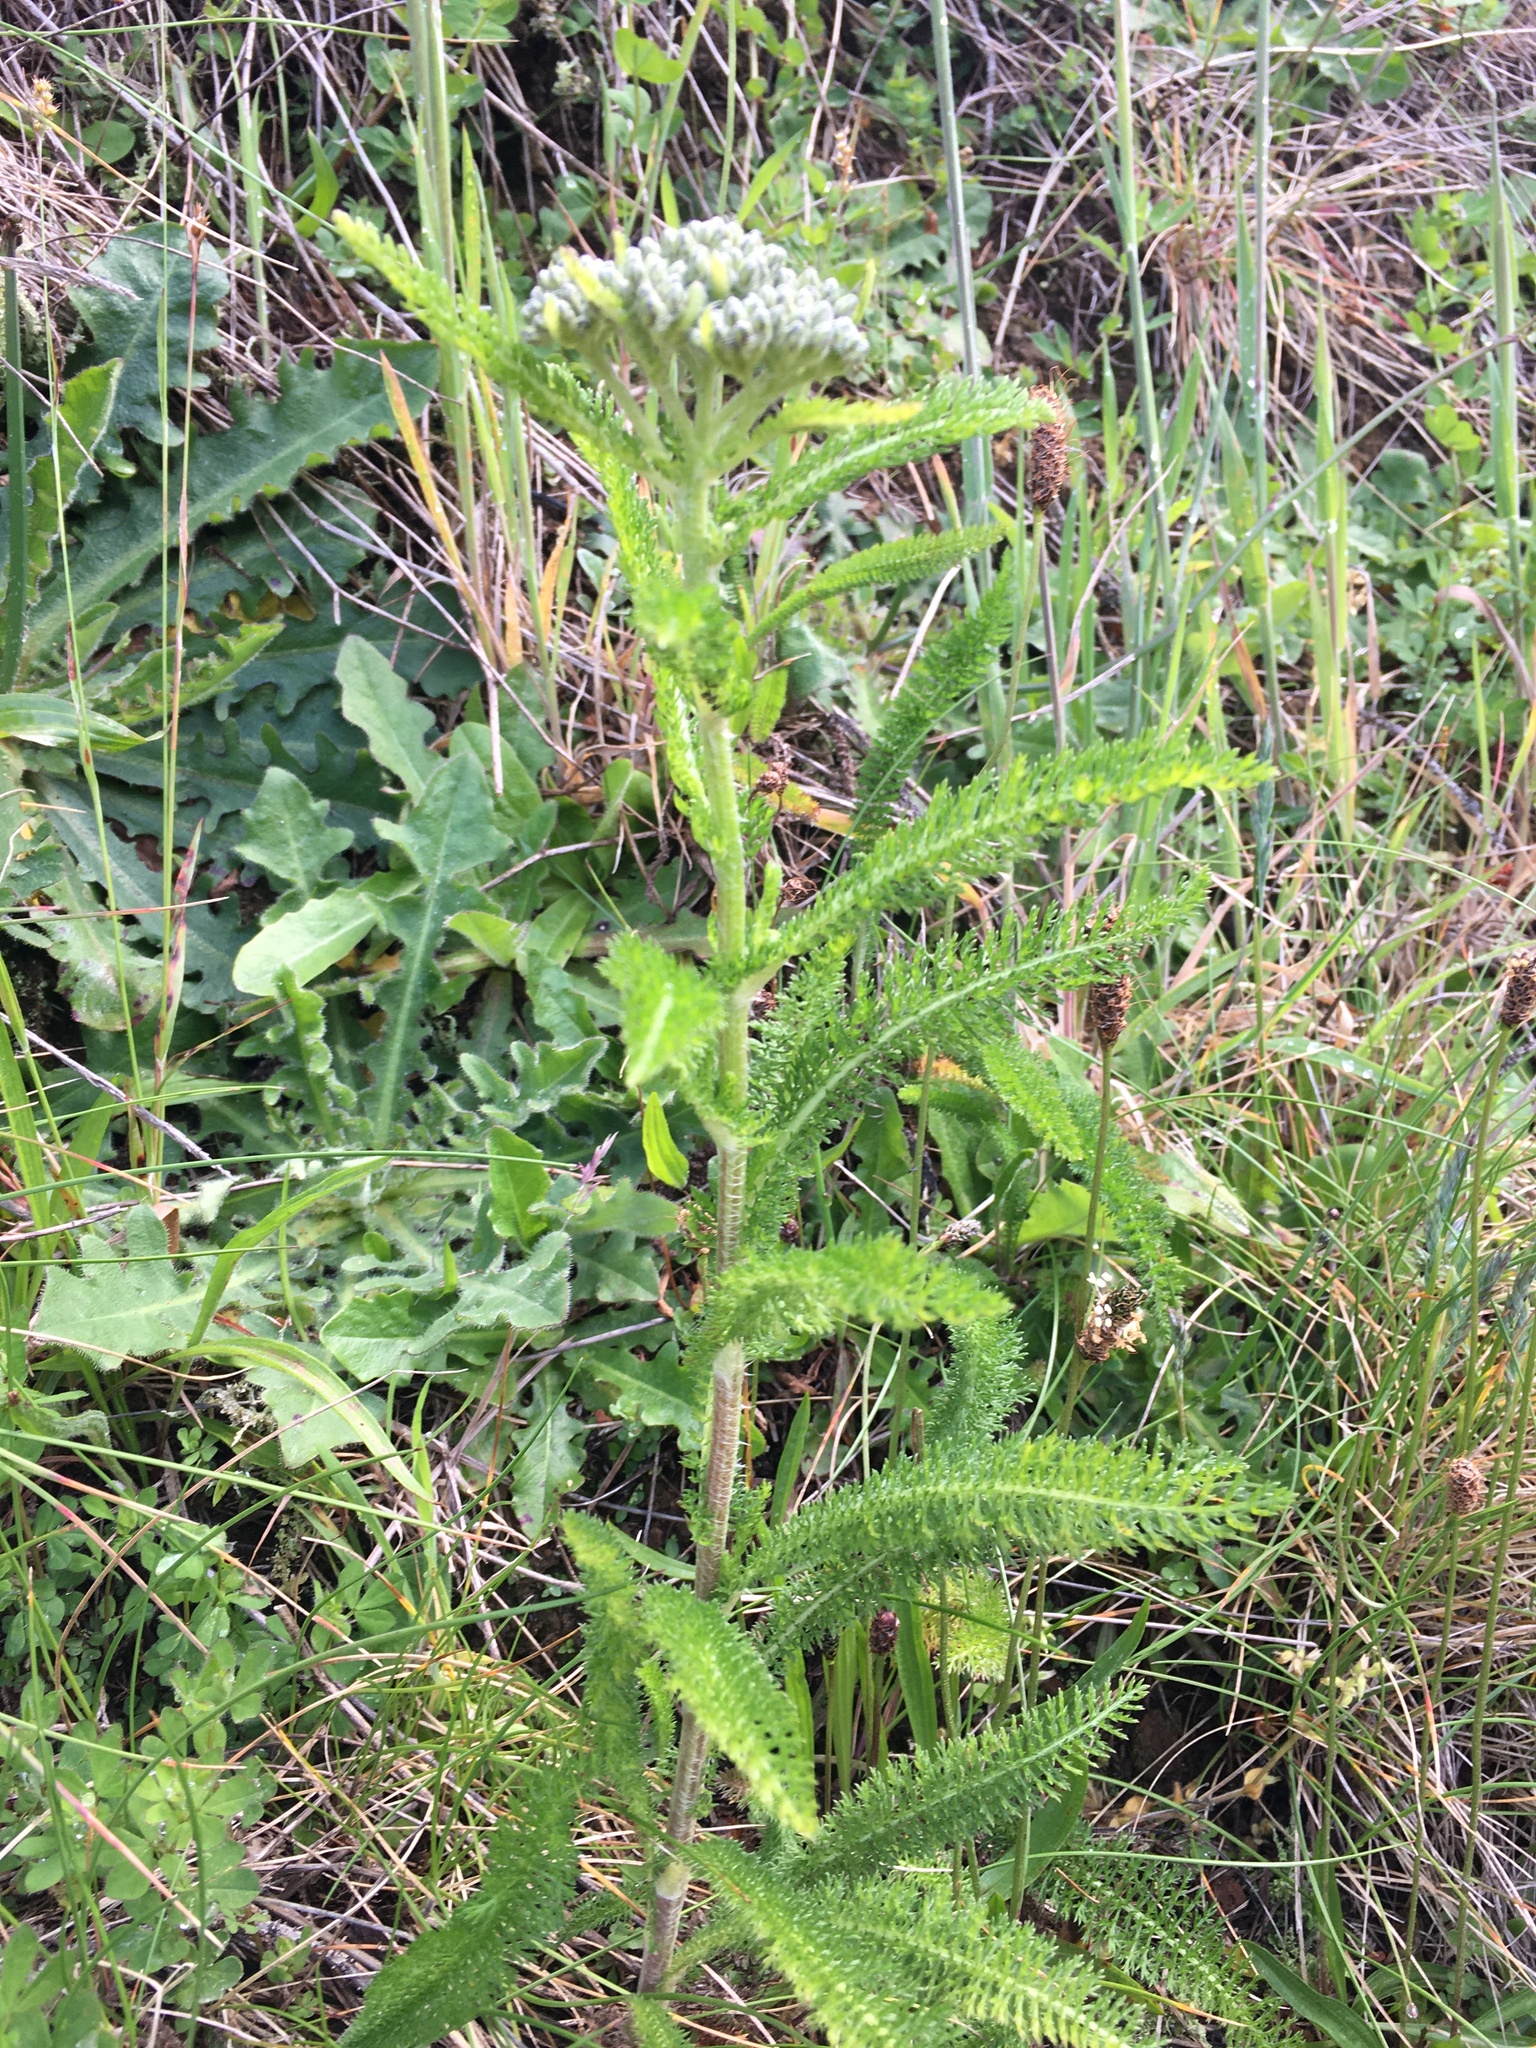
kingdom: Plantae
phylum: Tracheophyta
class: Magnoliopsida
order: Asterales
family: Asteraceae
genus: Achillea
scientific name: Achillea millefolium
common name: Yarrow
